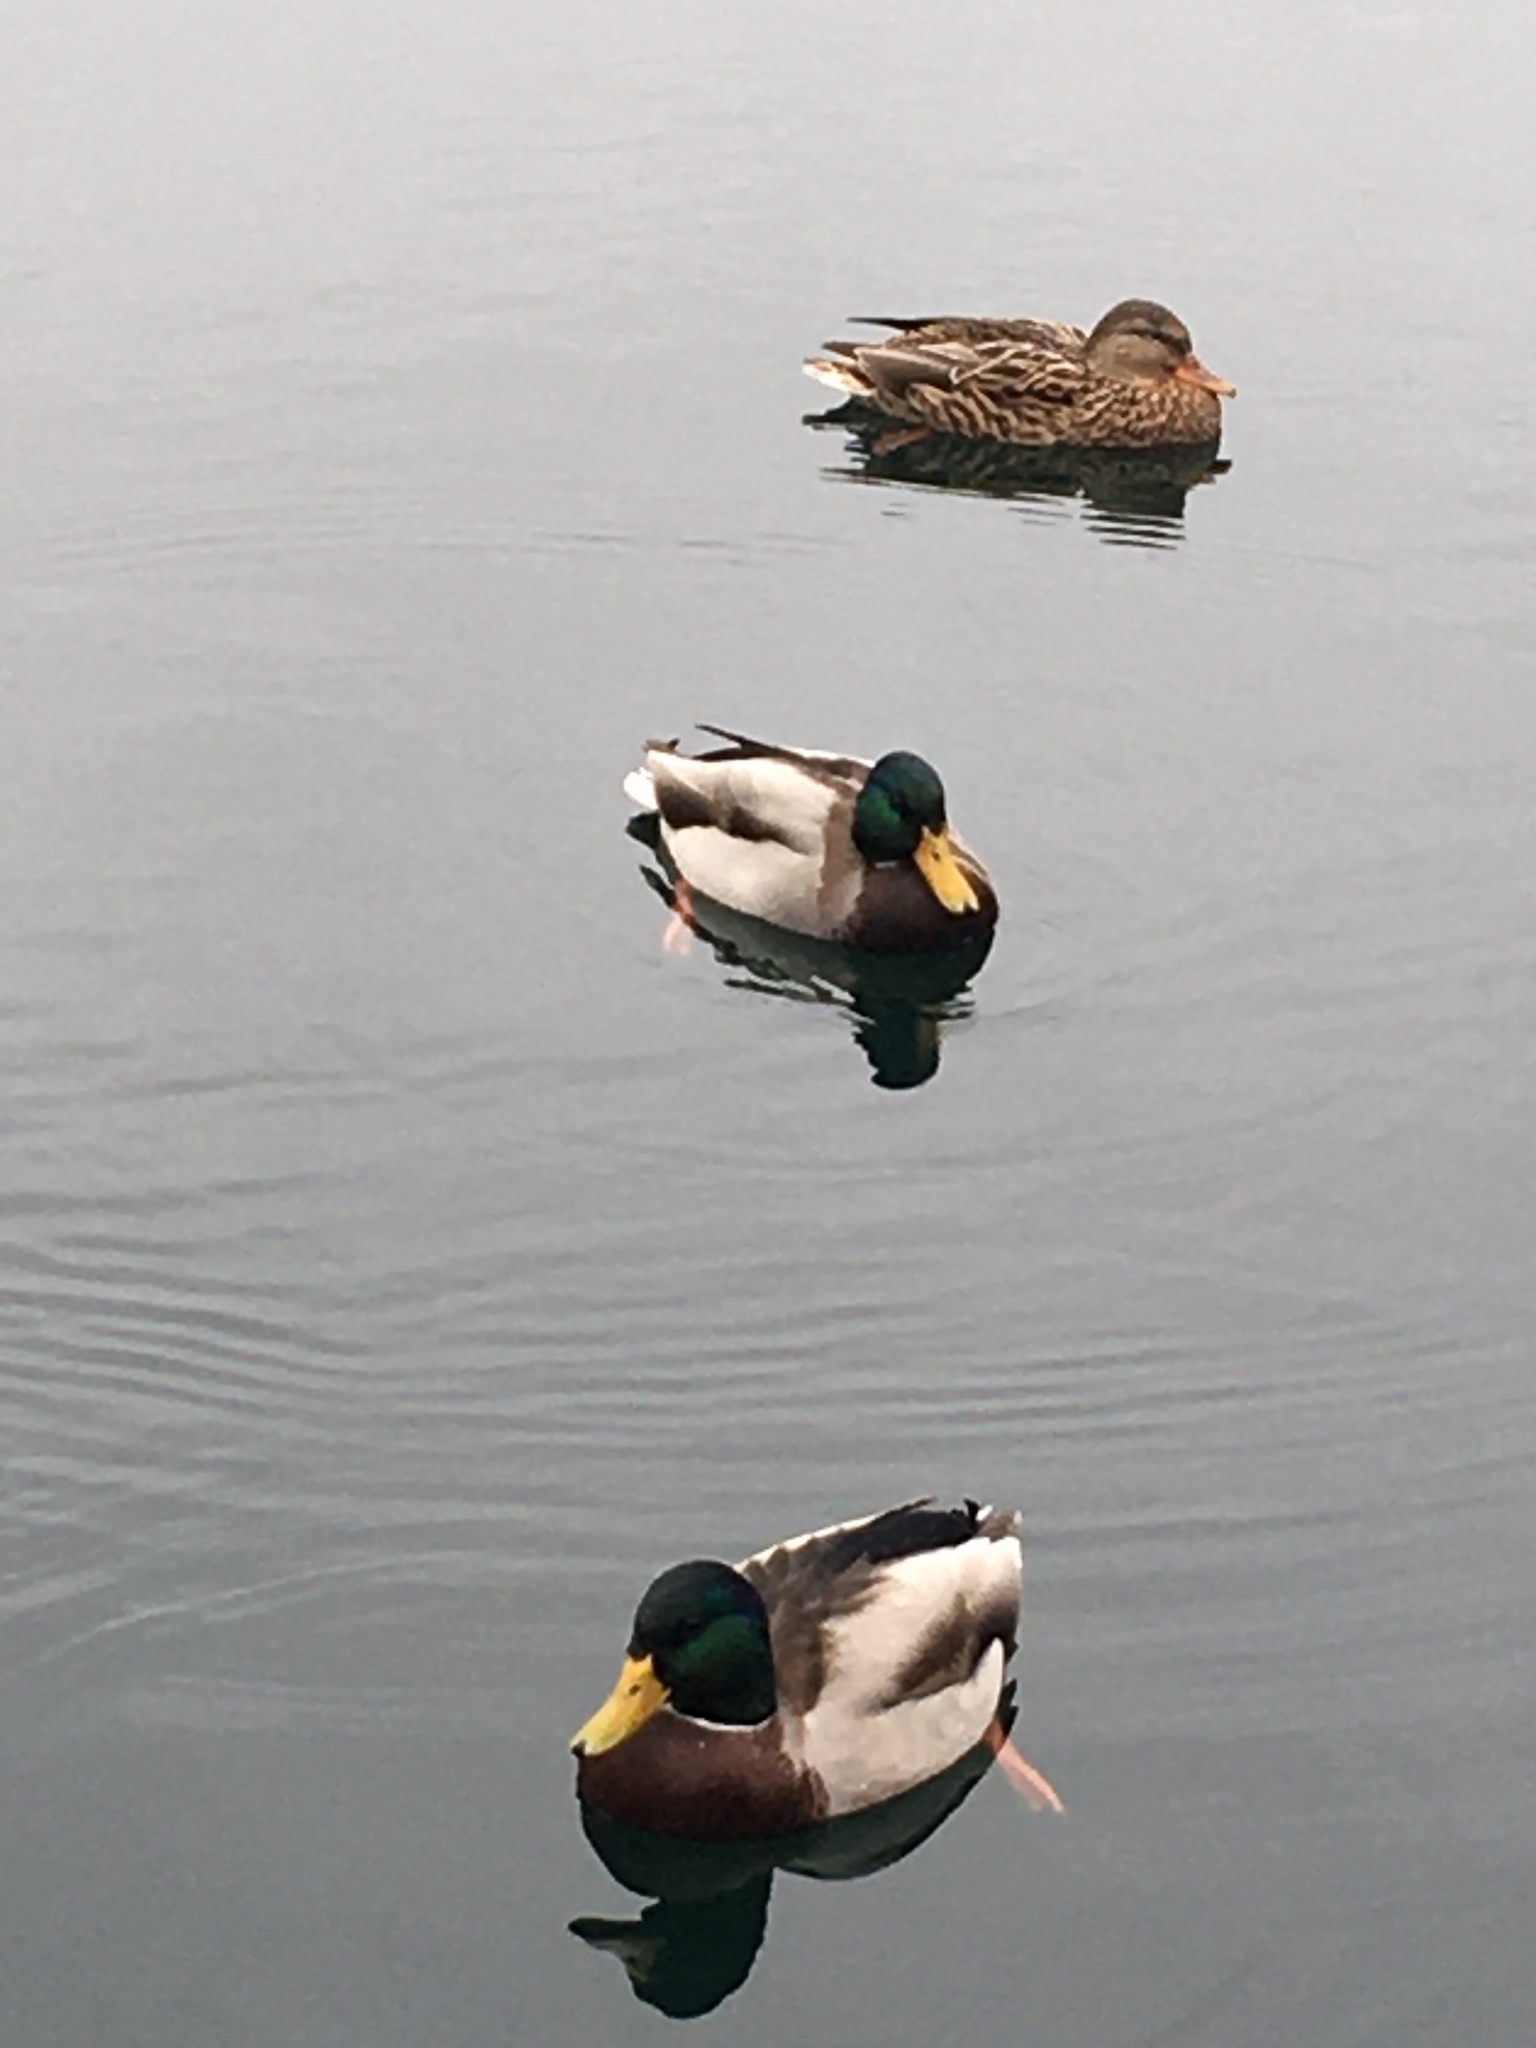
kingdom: Animalia
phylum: Chordata
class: Aves
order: Anseriformes
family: Anatidae
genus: Anas
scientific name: Anas platyrhynchos
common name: Mallard
